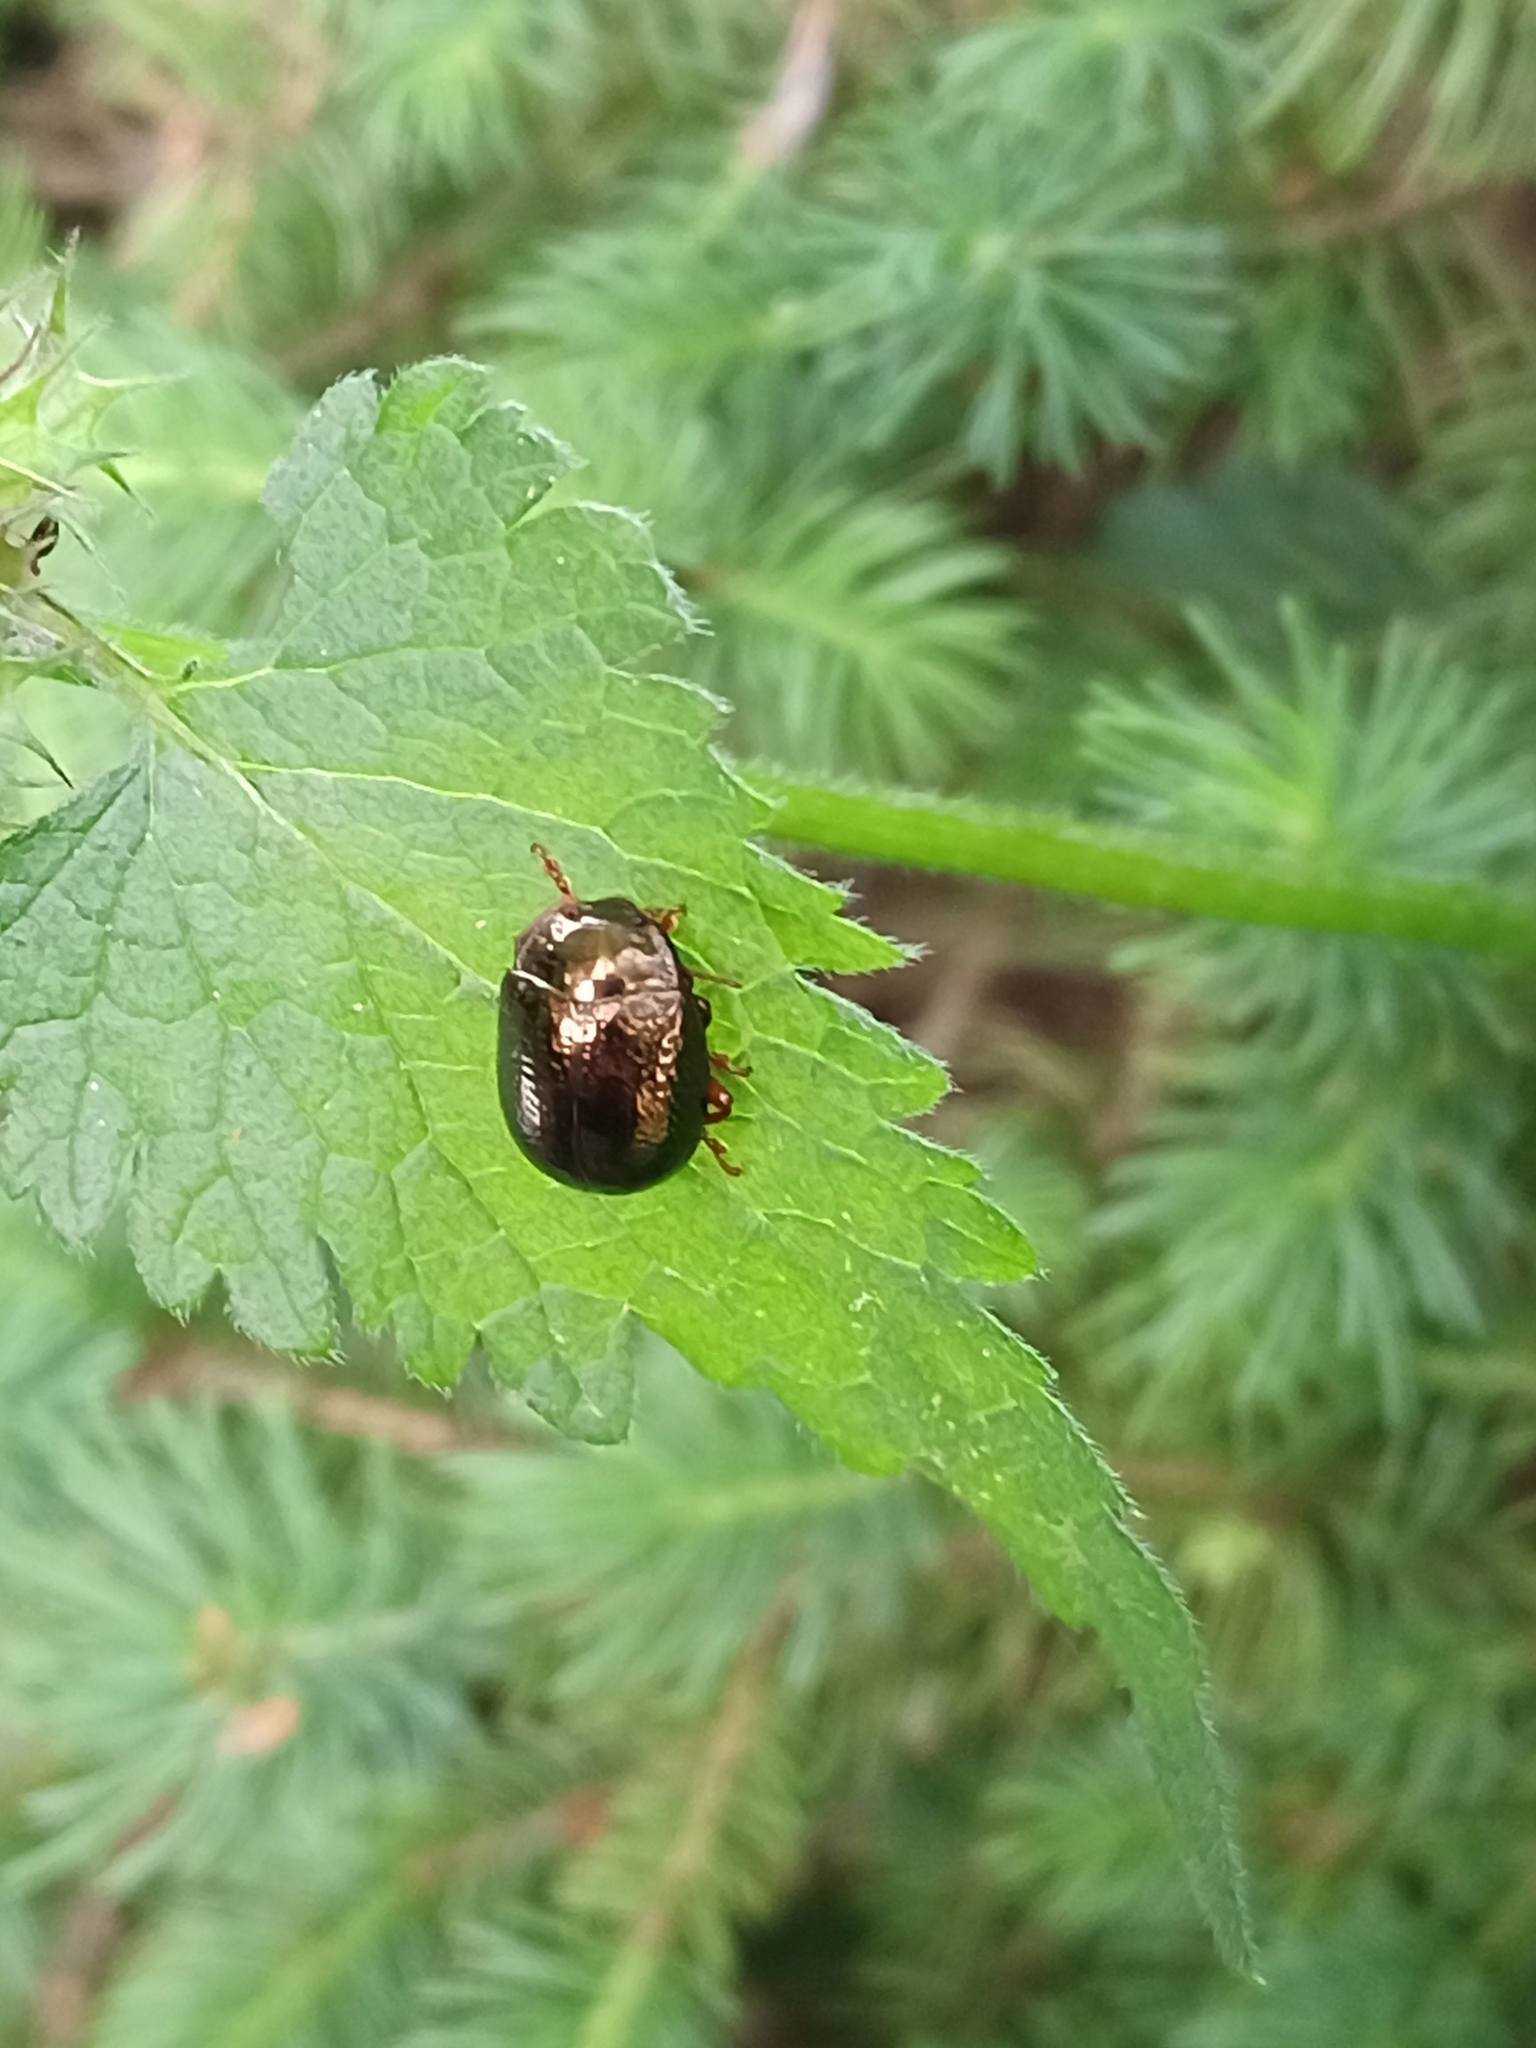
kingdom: Animalia
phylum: Arthropoda
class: Insecta
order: Coleoptera
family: Chrysomelidae
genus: Chrysolina
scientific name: Chrysolina bankii
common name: Leaf beetle
